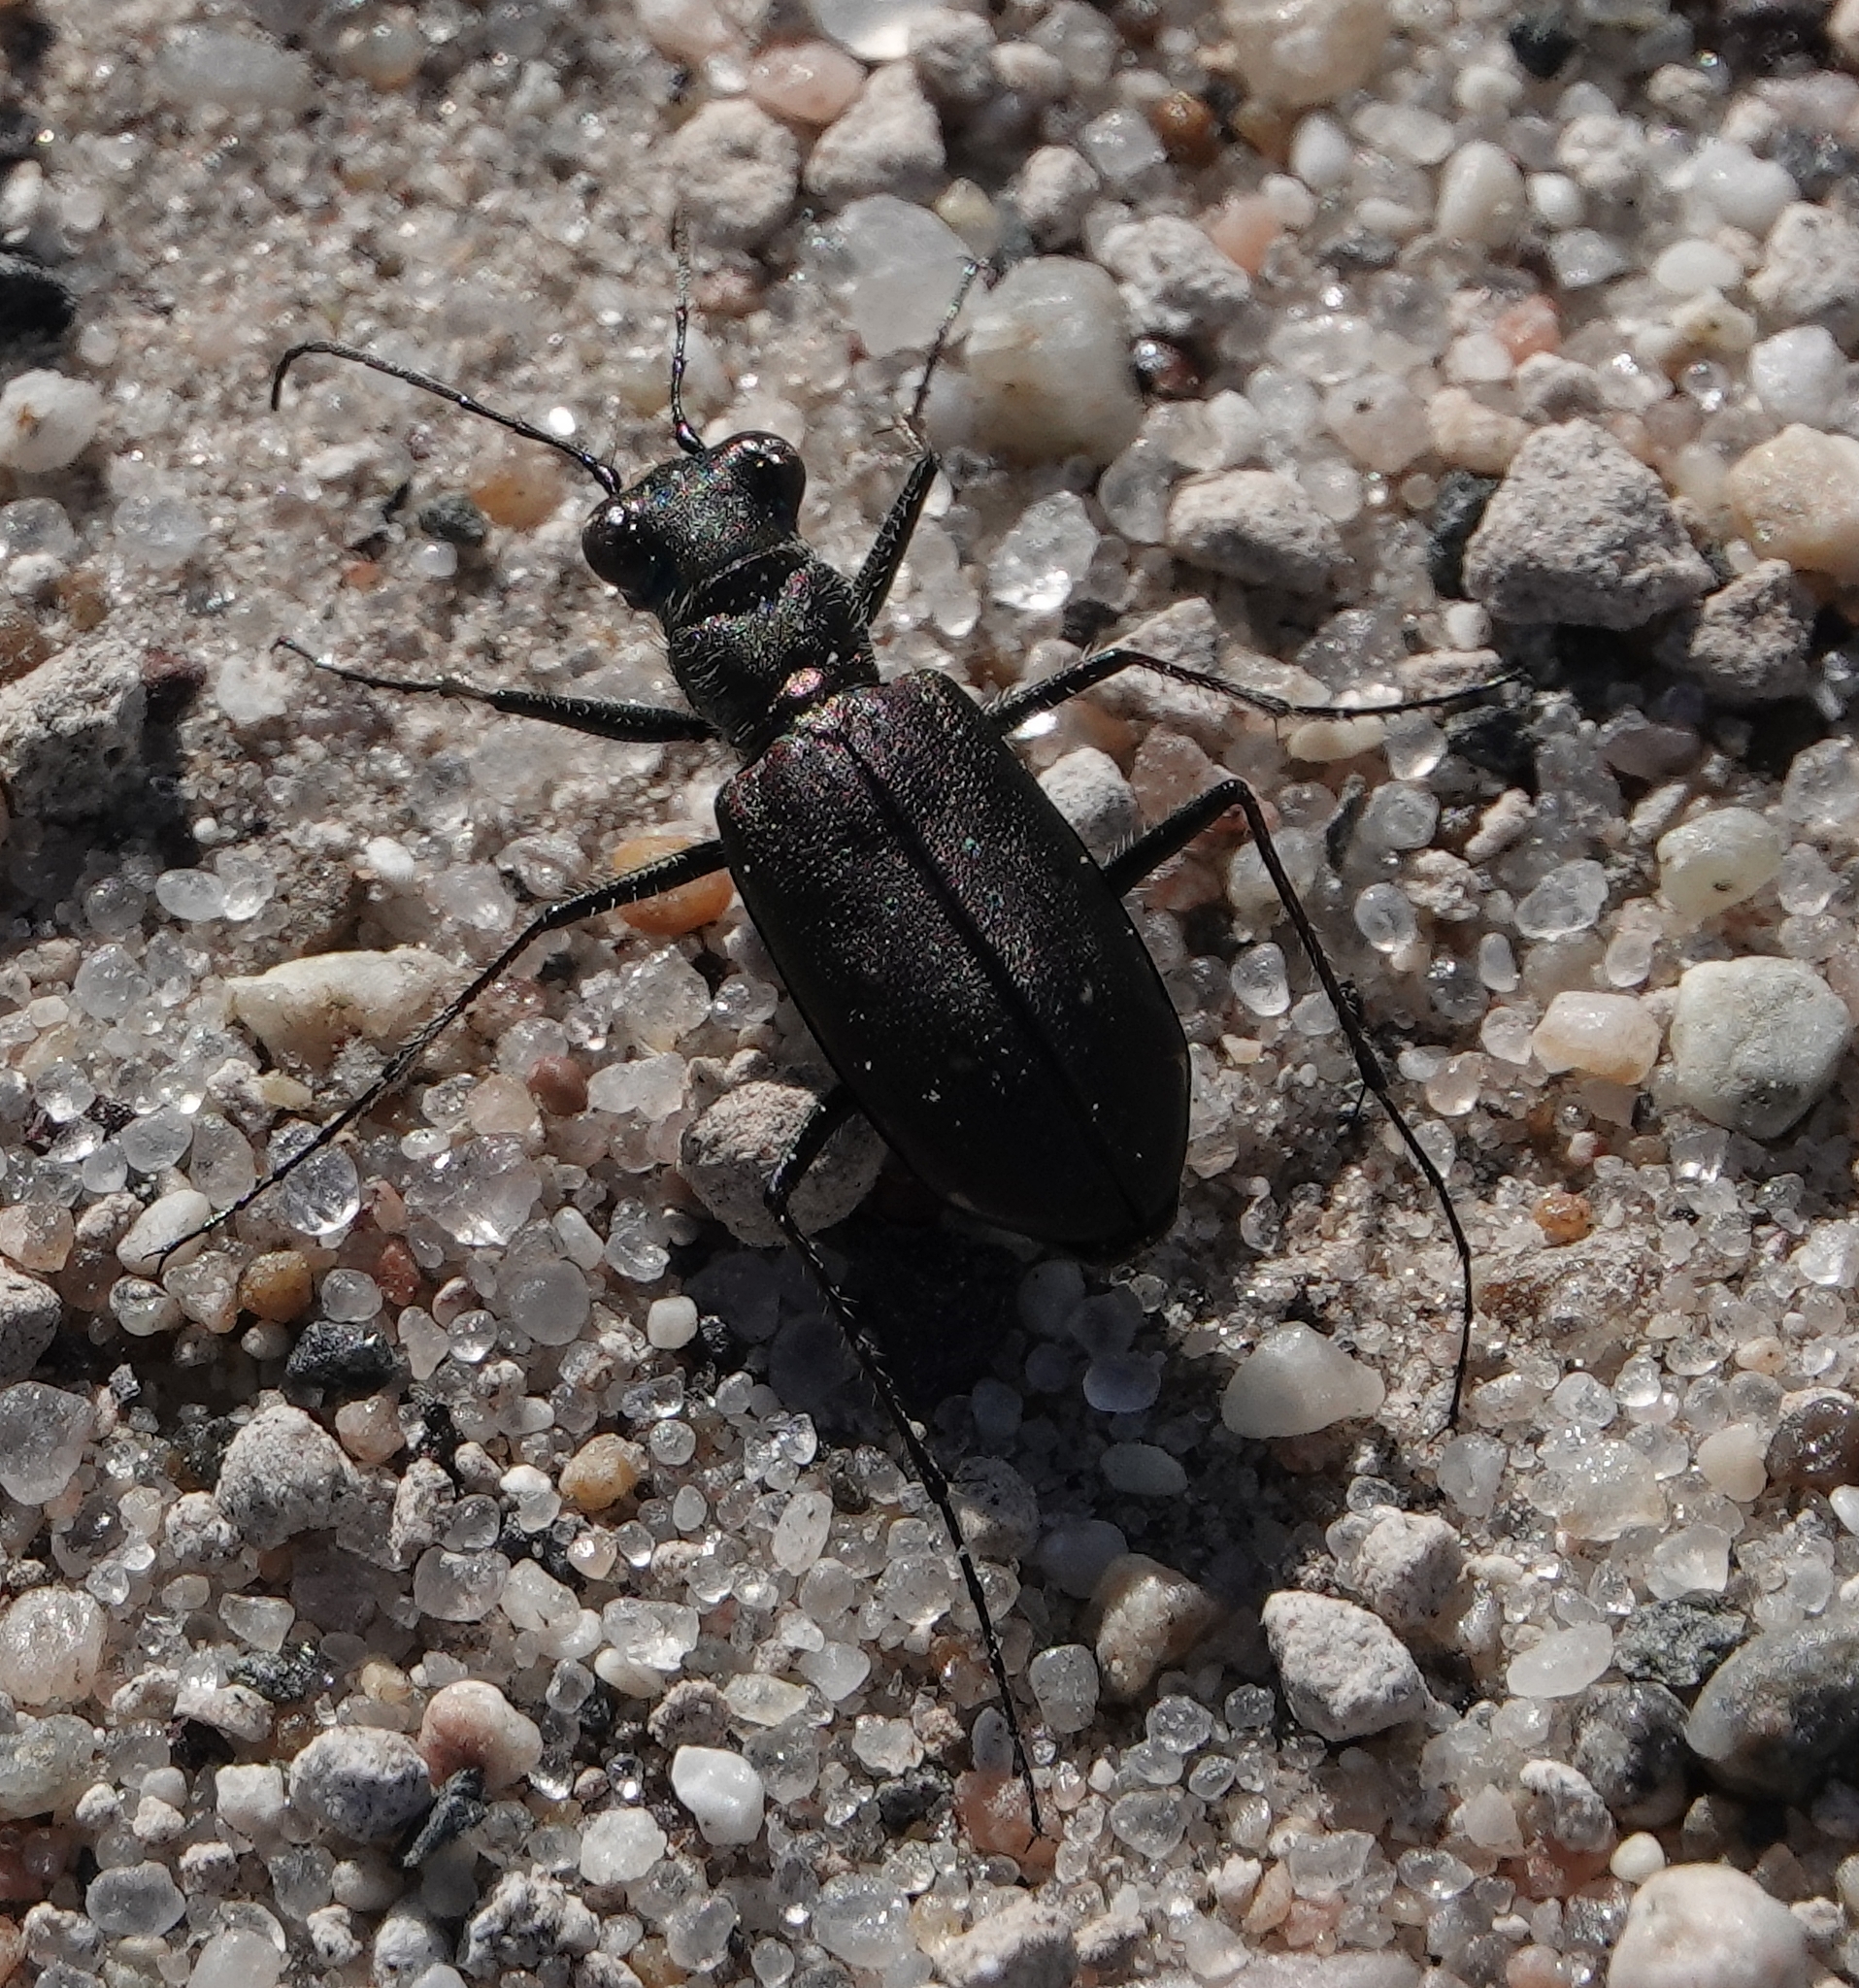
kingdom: Animalia
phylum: Arthropoda
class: Insecta
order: Coleoptera
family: Carabidae
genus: Cicindela
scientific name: Cicindela punctulata
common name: Punctured tiger beetle
